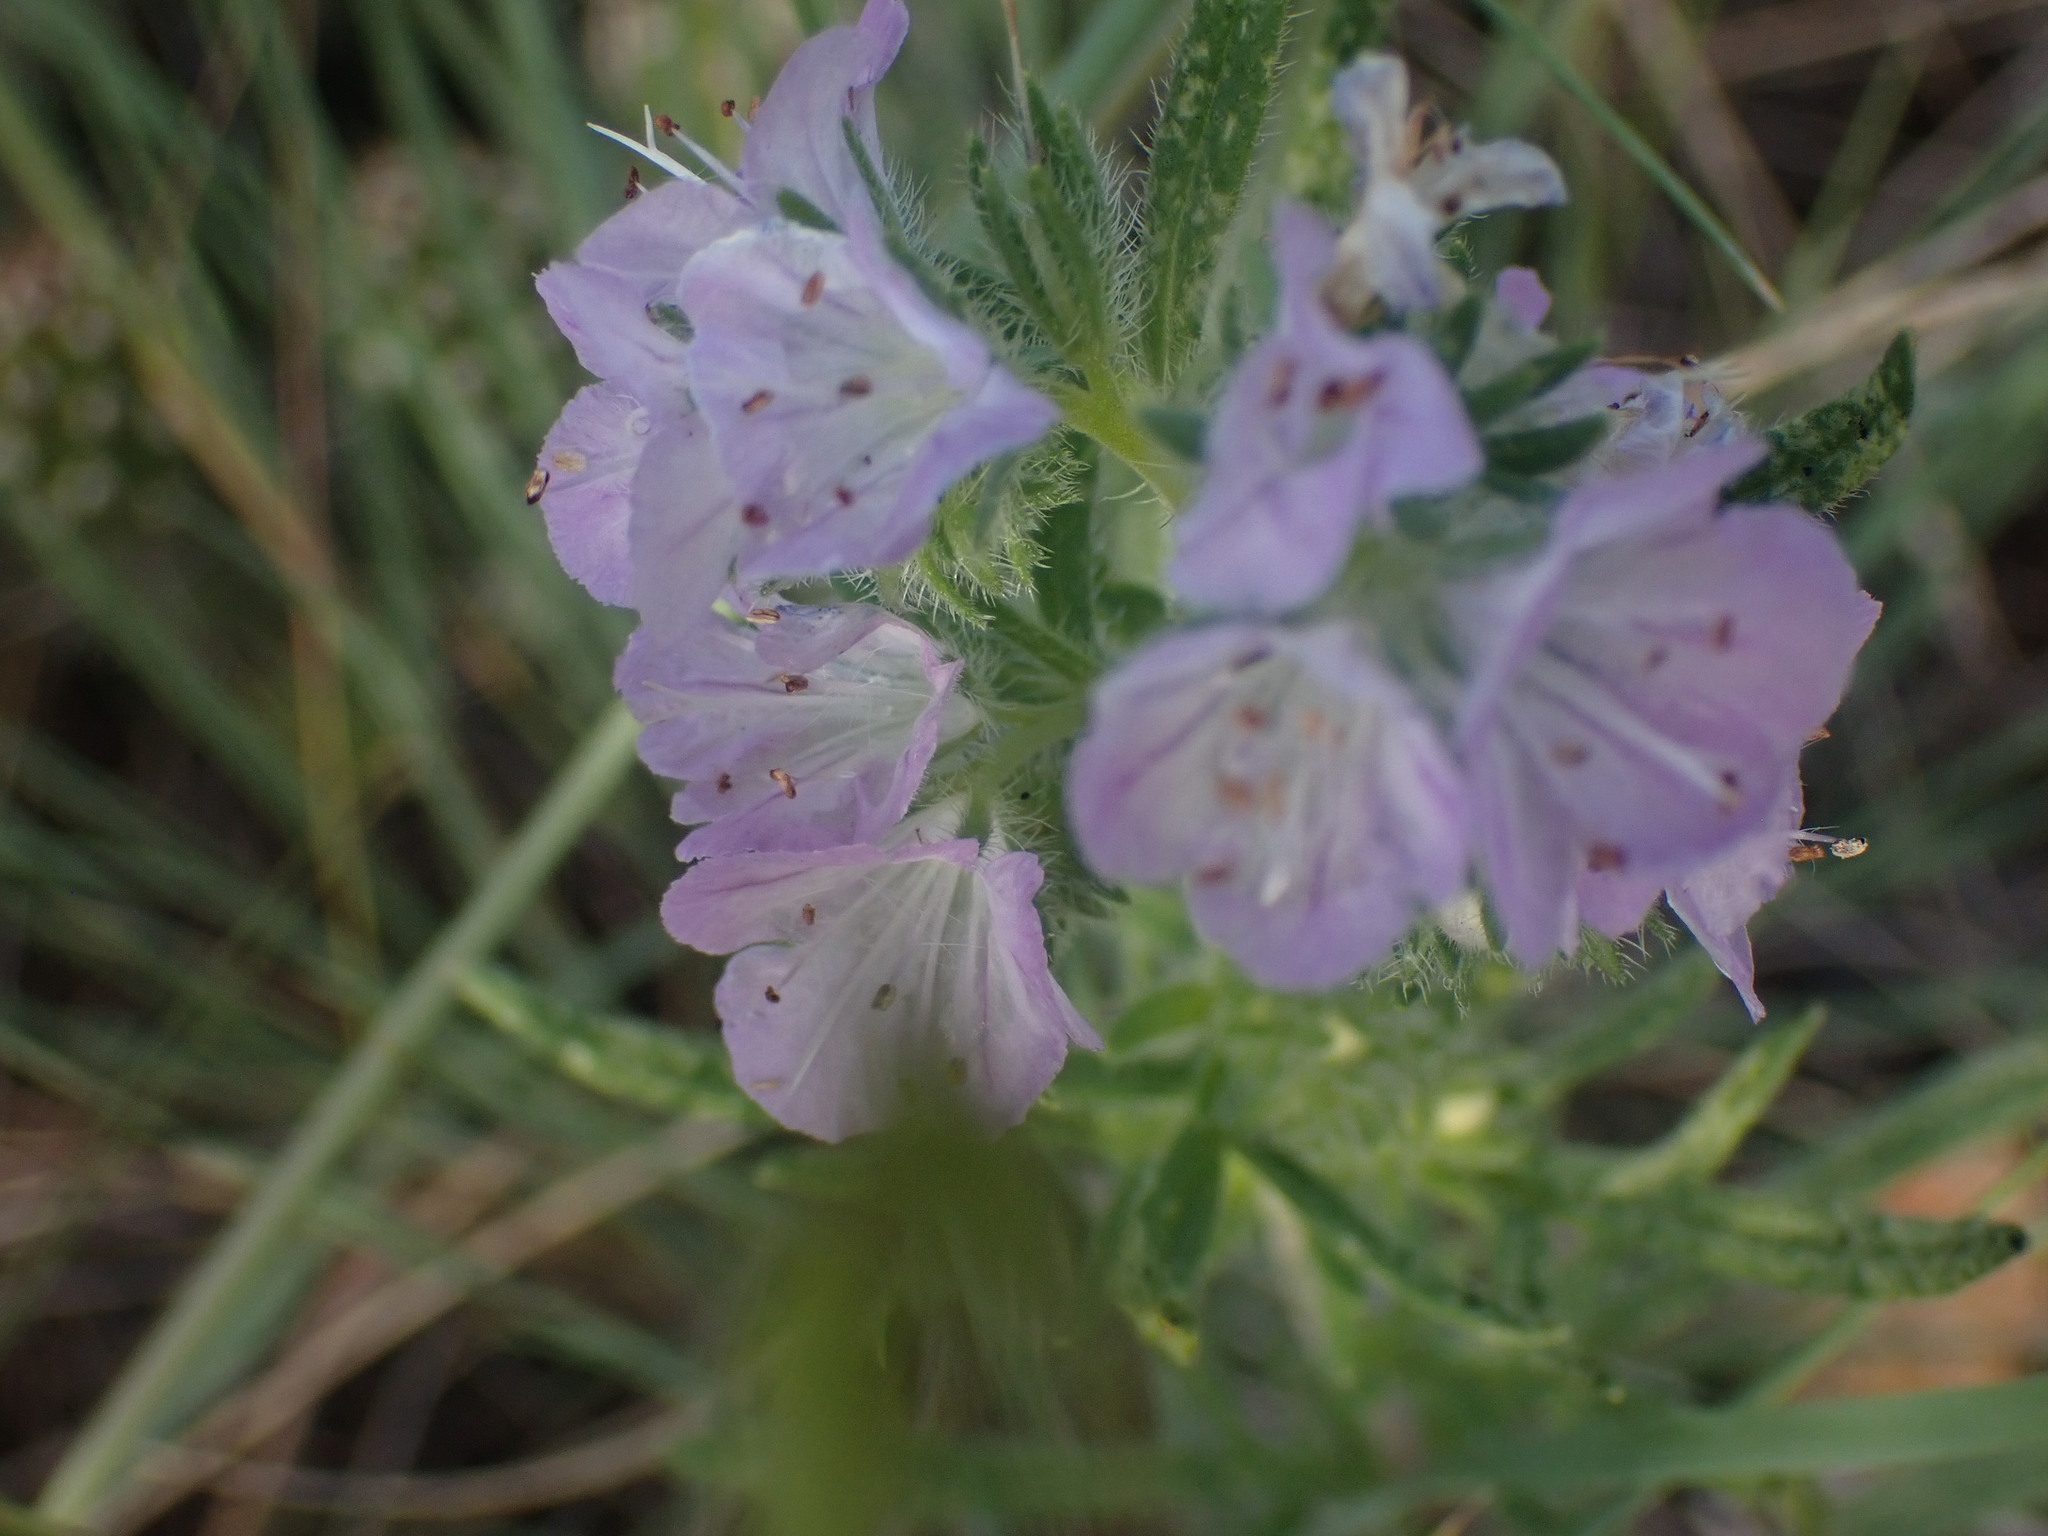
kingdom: Plantae
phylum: Tracheophyta
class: Magnoliopsida
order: Boraginales
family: Hydrophyllaceae
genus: Phacelia
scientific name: Phacelia linearis
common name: Linear-leaved phacelia
